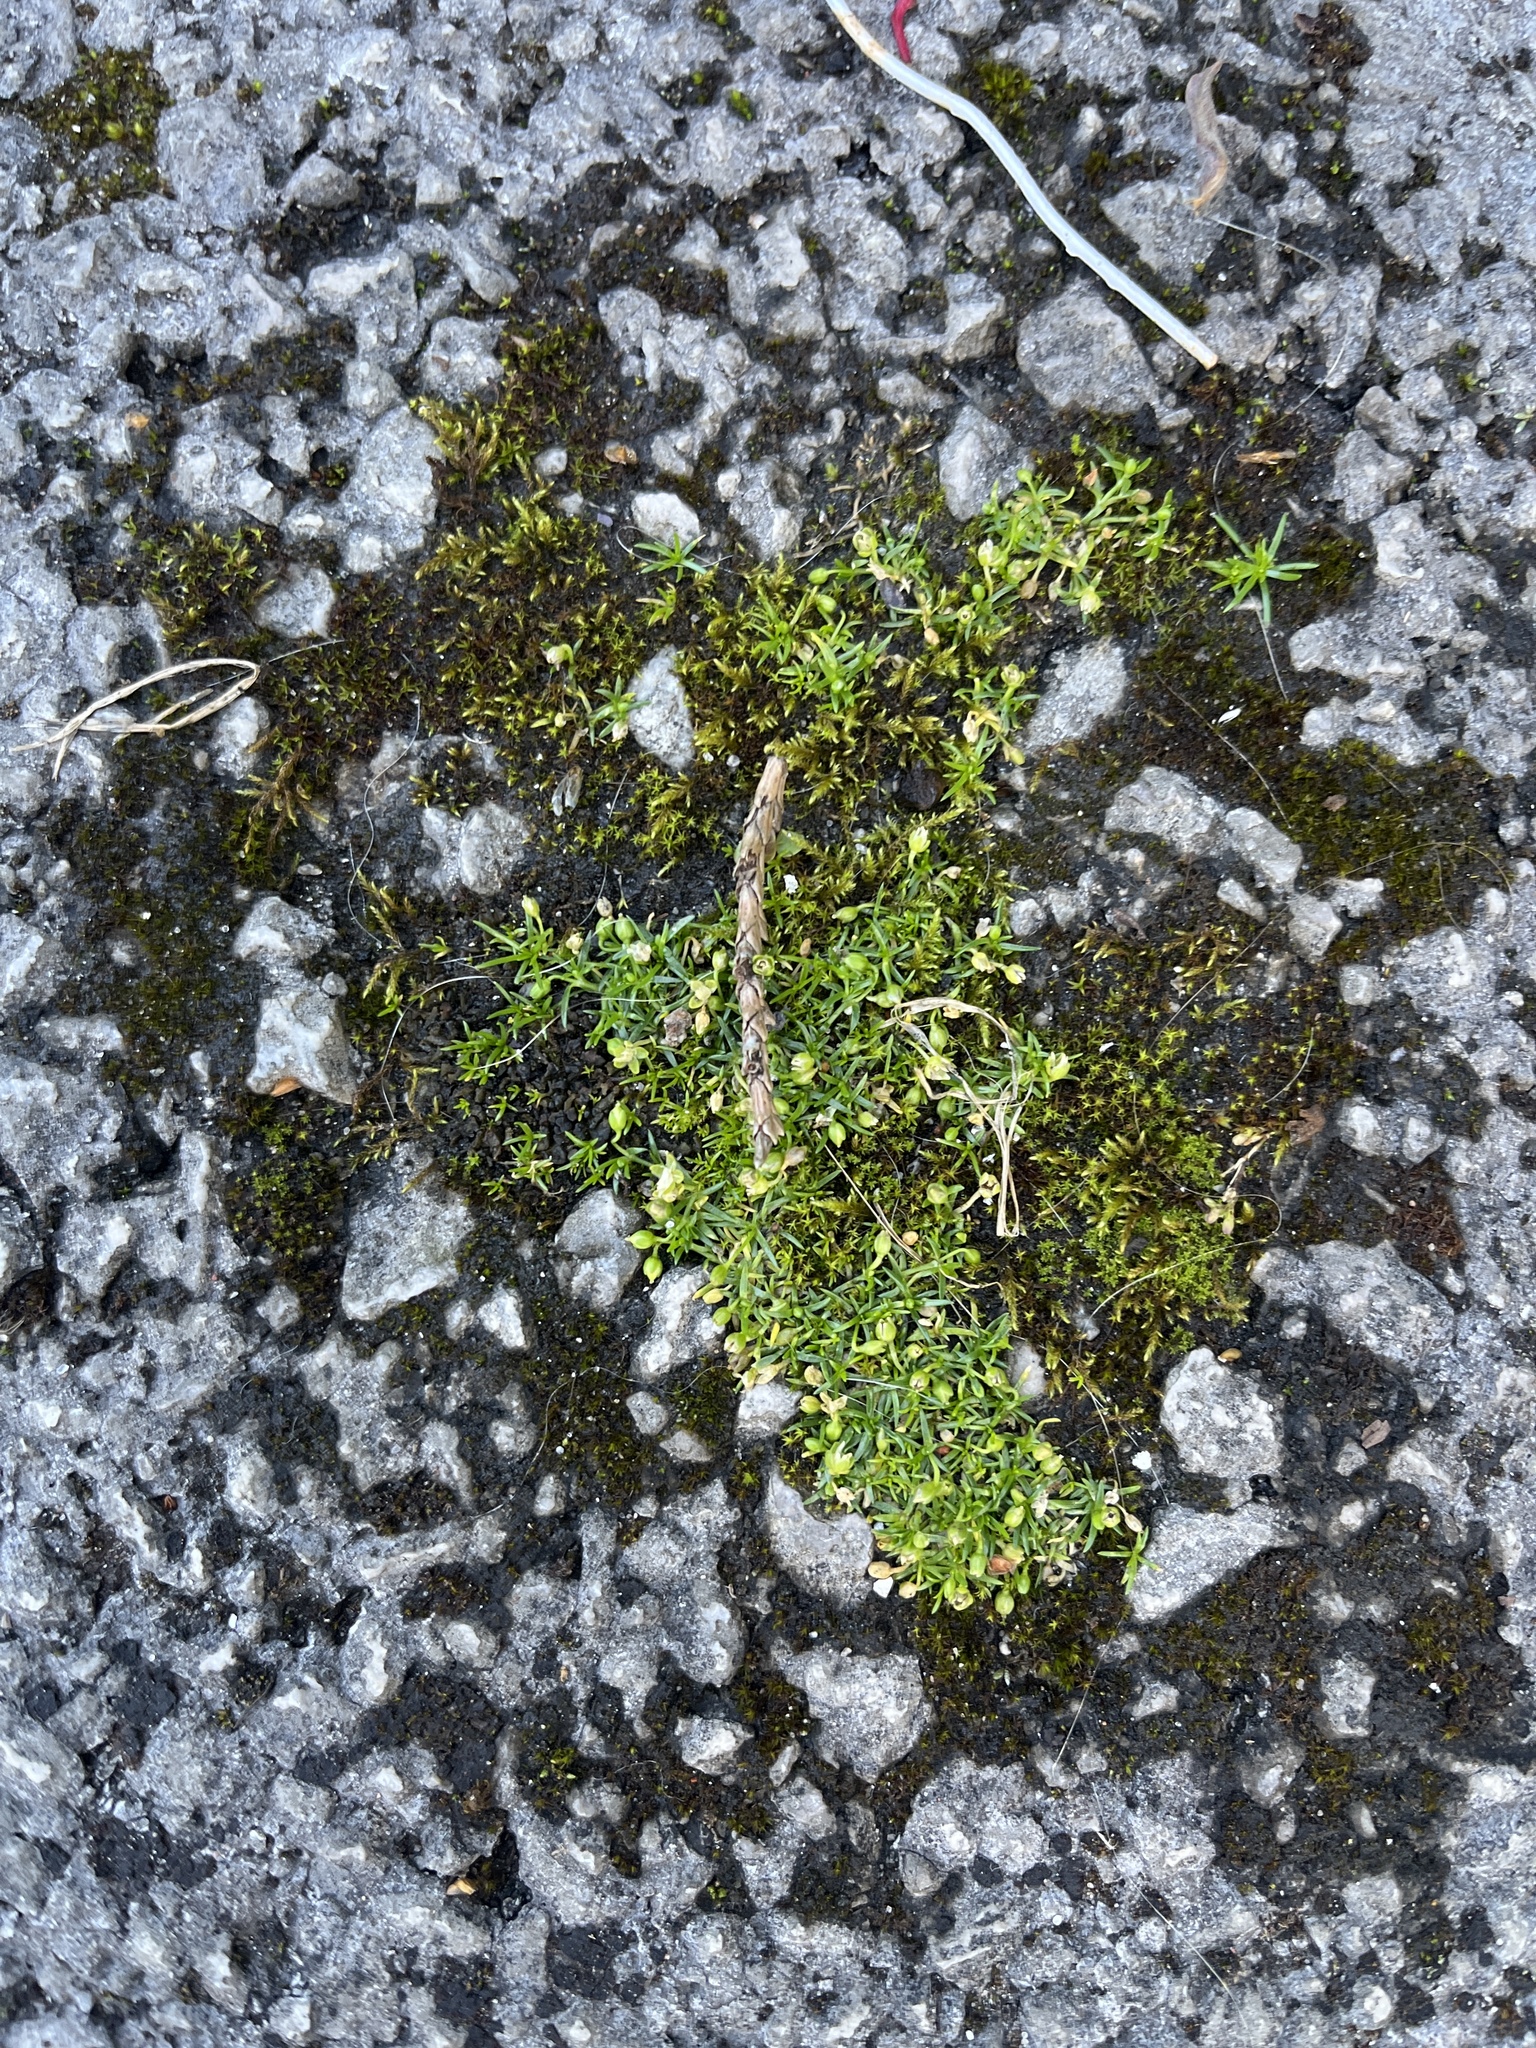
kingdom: Plantae
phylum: Tracheophyta
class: Magnoliopsida
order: Caryophyllales
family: Caryophyllaceae
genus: Sagina
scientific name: Sagina procumbens
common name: Procumbent pearlwort
